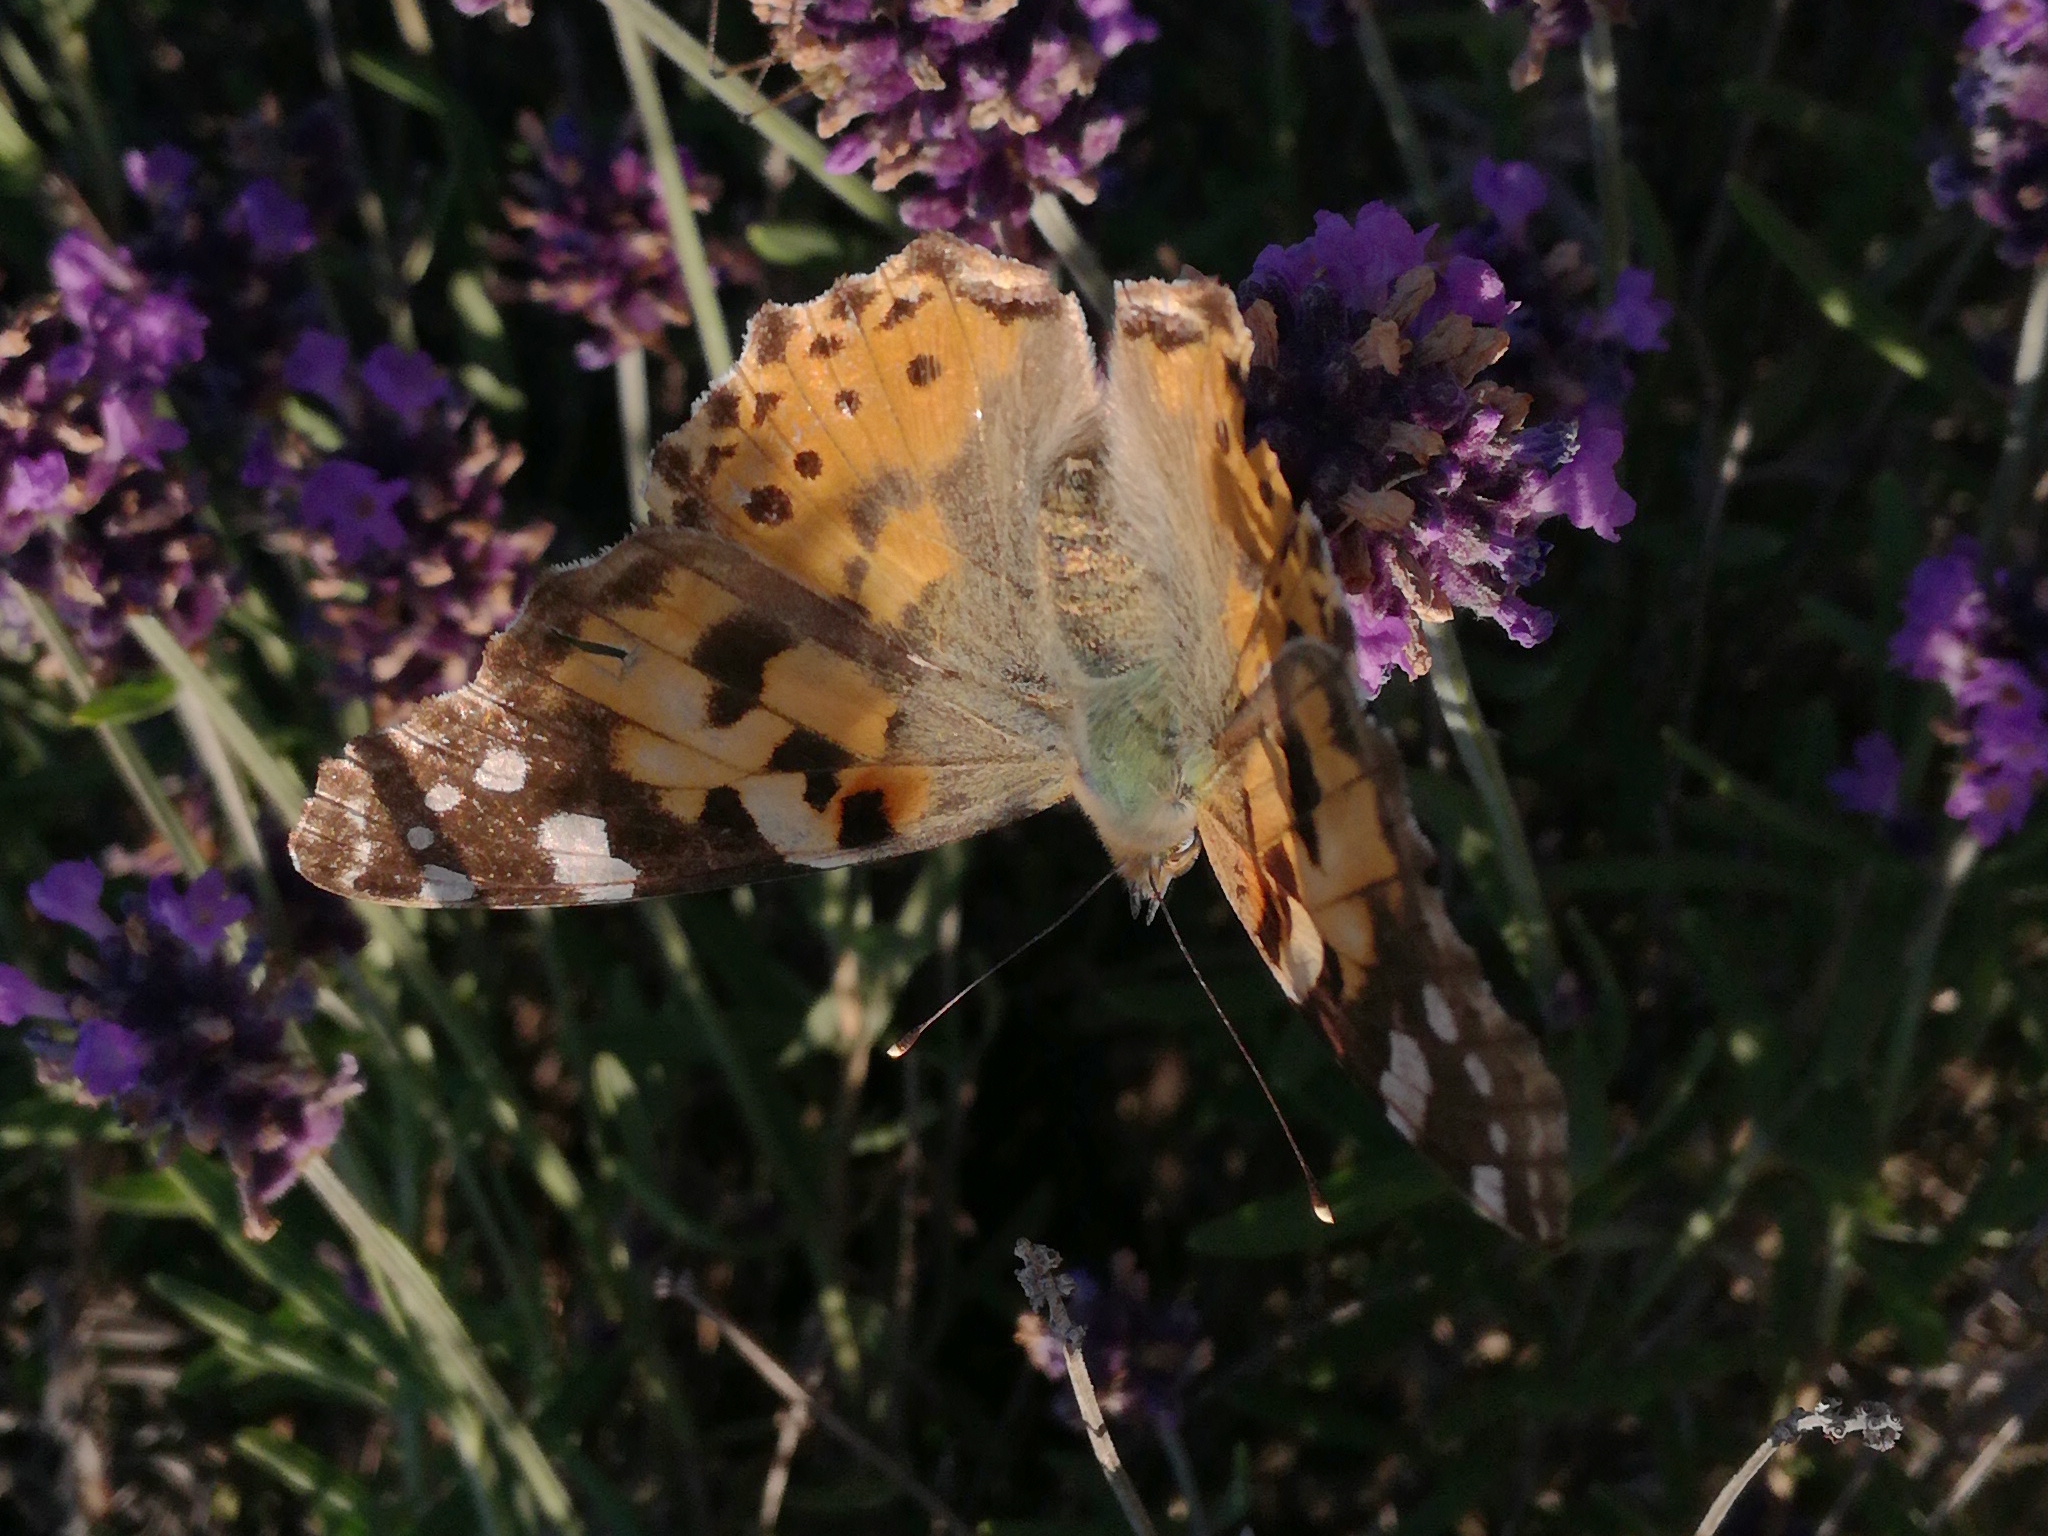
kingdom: Animalia
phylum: Arthropoda
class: Insecta
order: Lepidoptera
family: Nymphalidae
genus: Vanessa
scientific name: Vanessa cardui
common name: Painted lady
